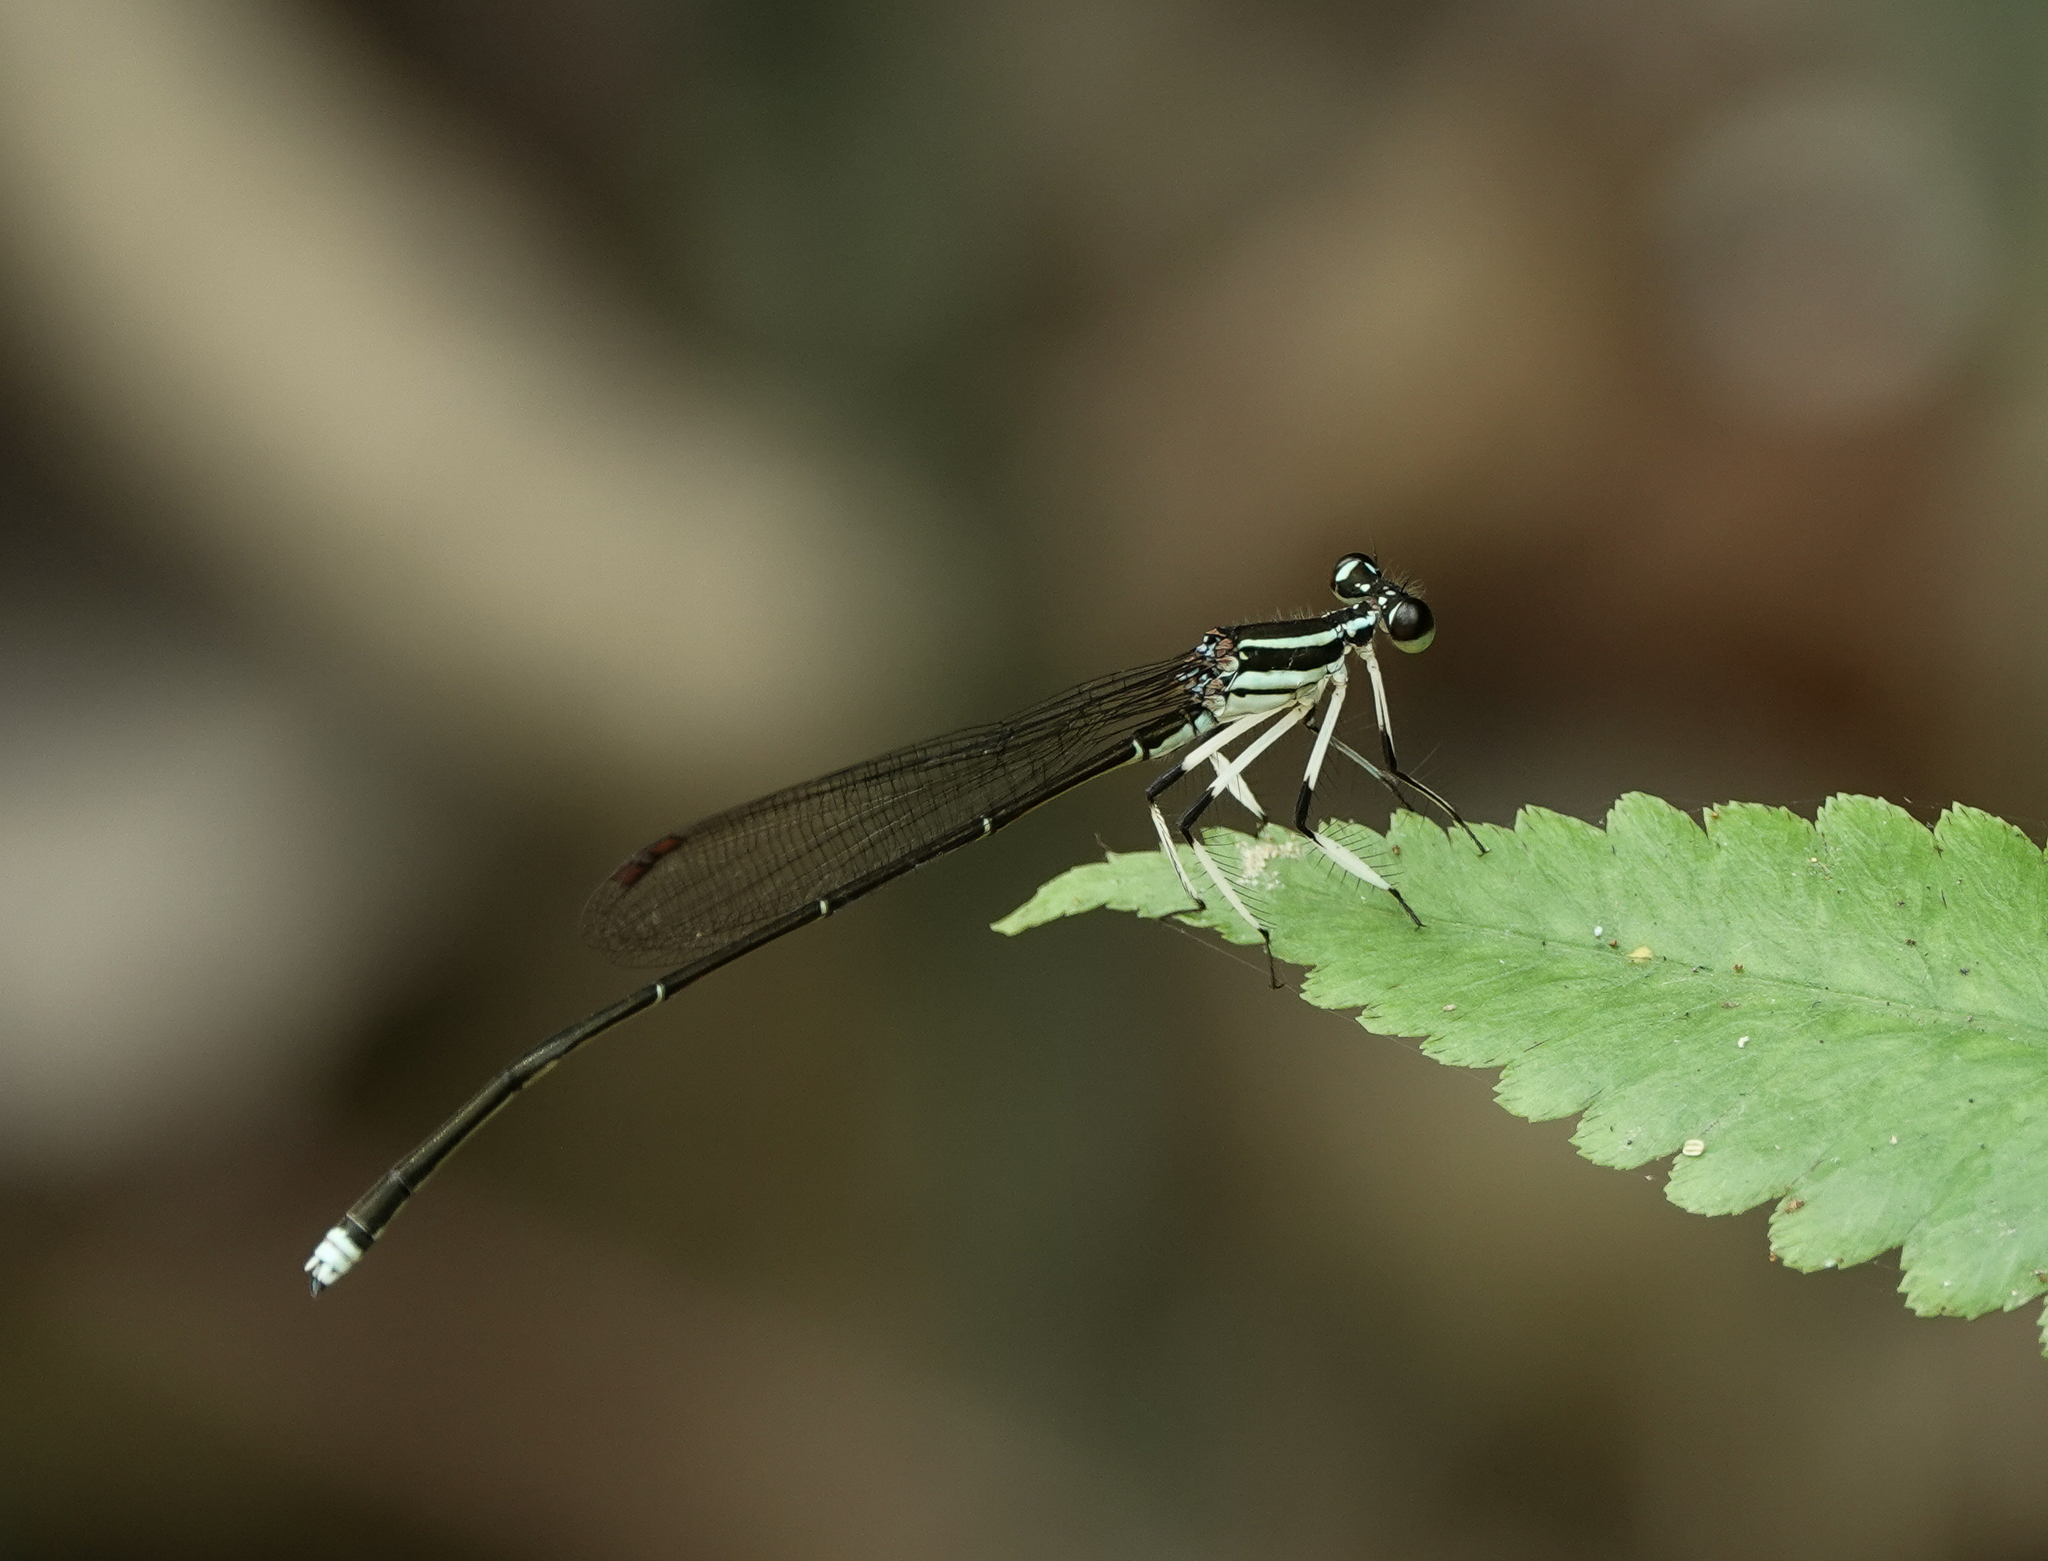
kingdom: Animalia
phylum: Arthropoda
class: Insecta
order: Odonata
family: Platycnemididae
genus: Pseudocopera
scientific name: Pseudocopera ciliata
